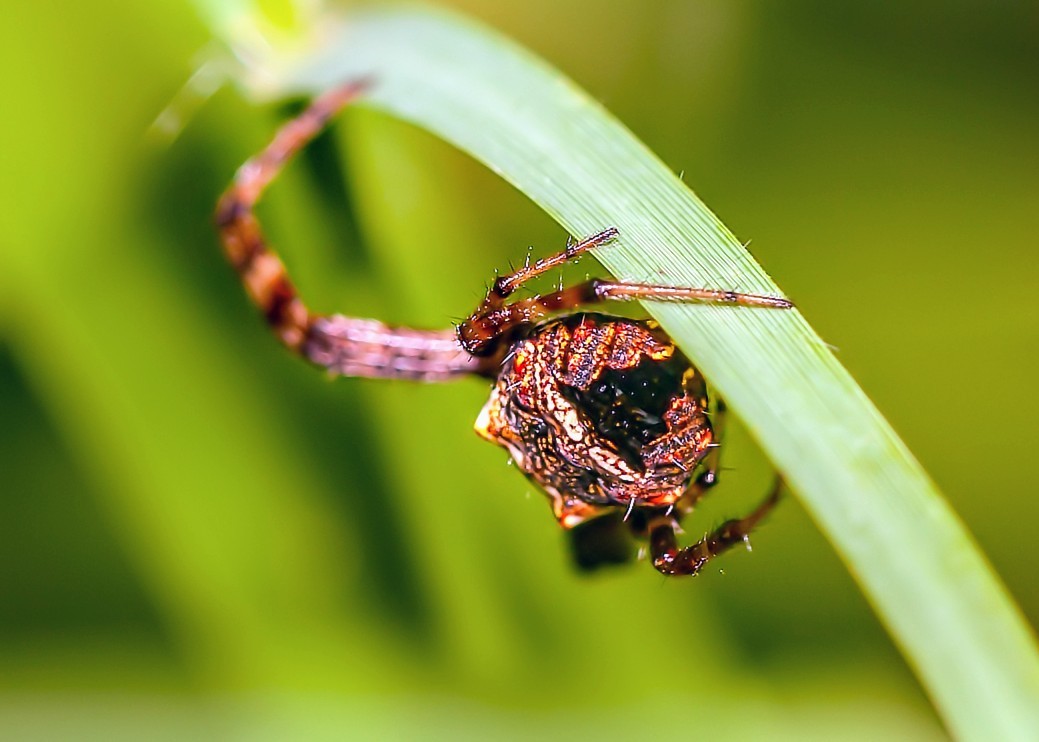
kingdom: Animalia
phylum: Arthropoda
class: Arachnida
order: Araneae
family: Araneidae
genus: Gea
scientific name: Gea heptagon
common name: Orb weavers
